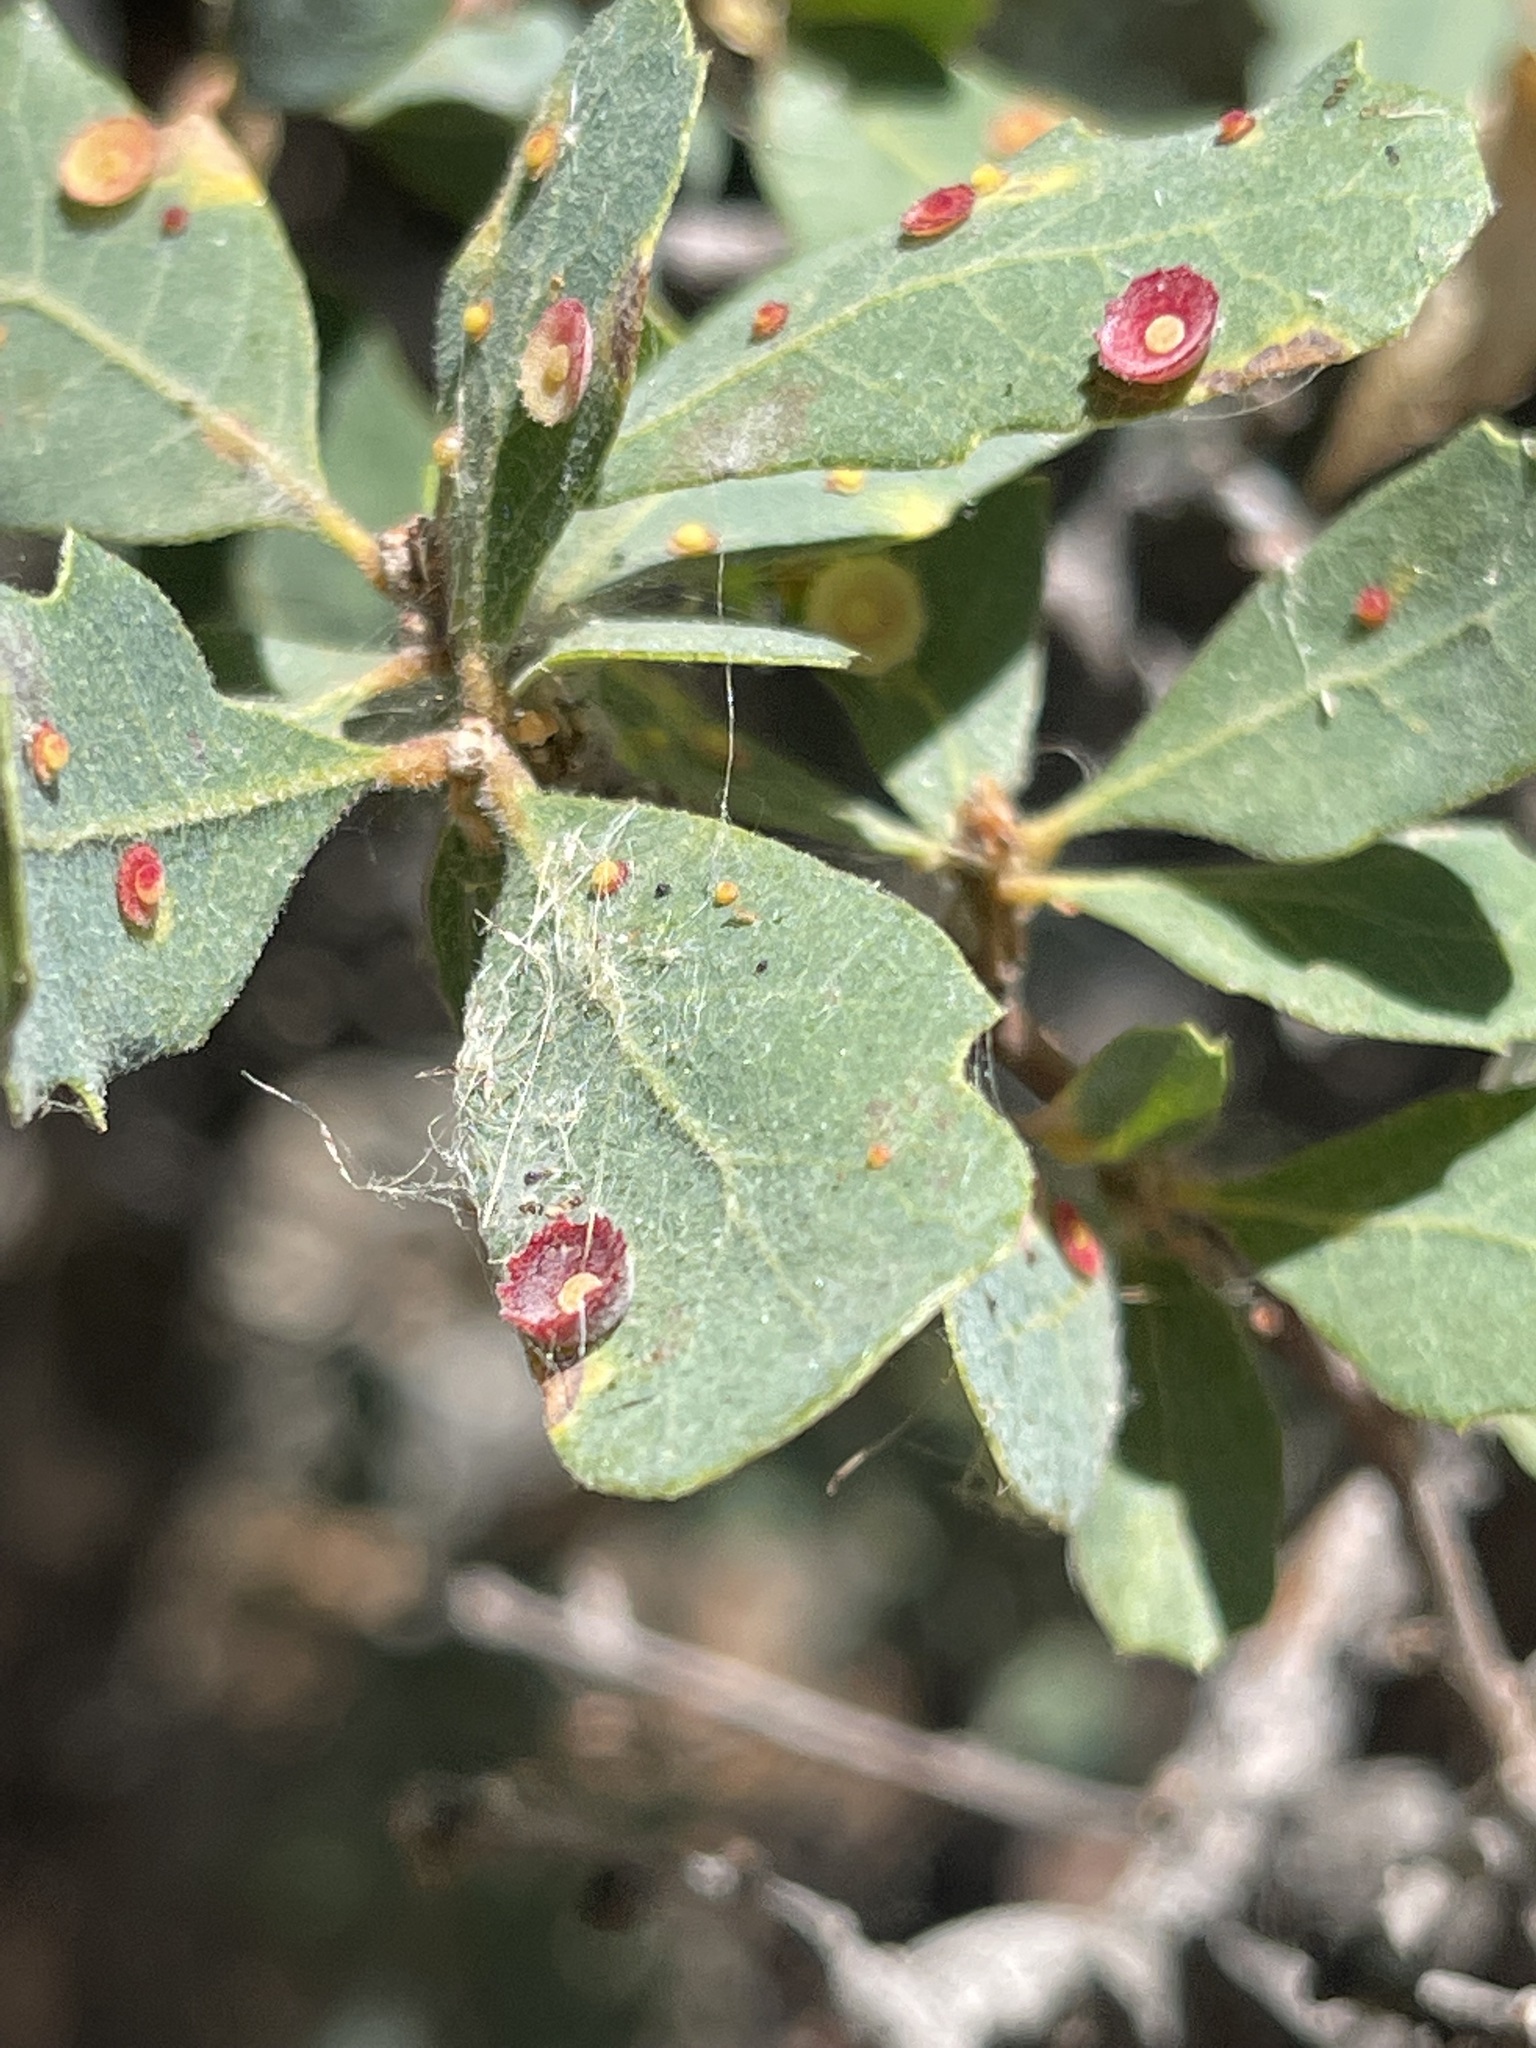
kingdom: Animalia
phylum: Arthropoda
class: Insecta
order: Hymenoptera
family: Cynipidae
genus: Andricus
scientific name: Andricus
